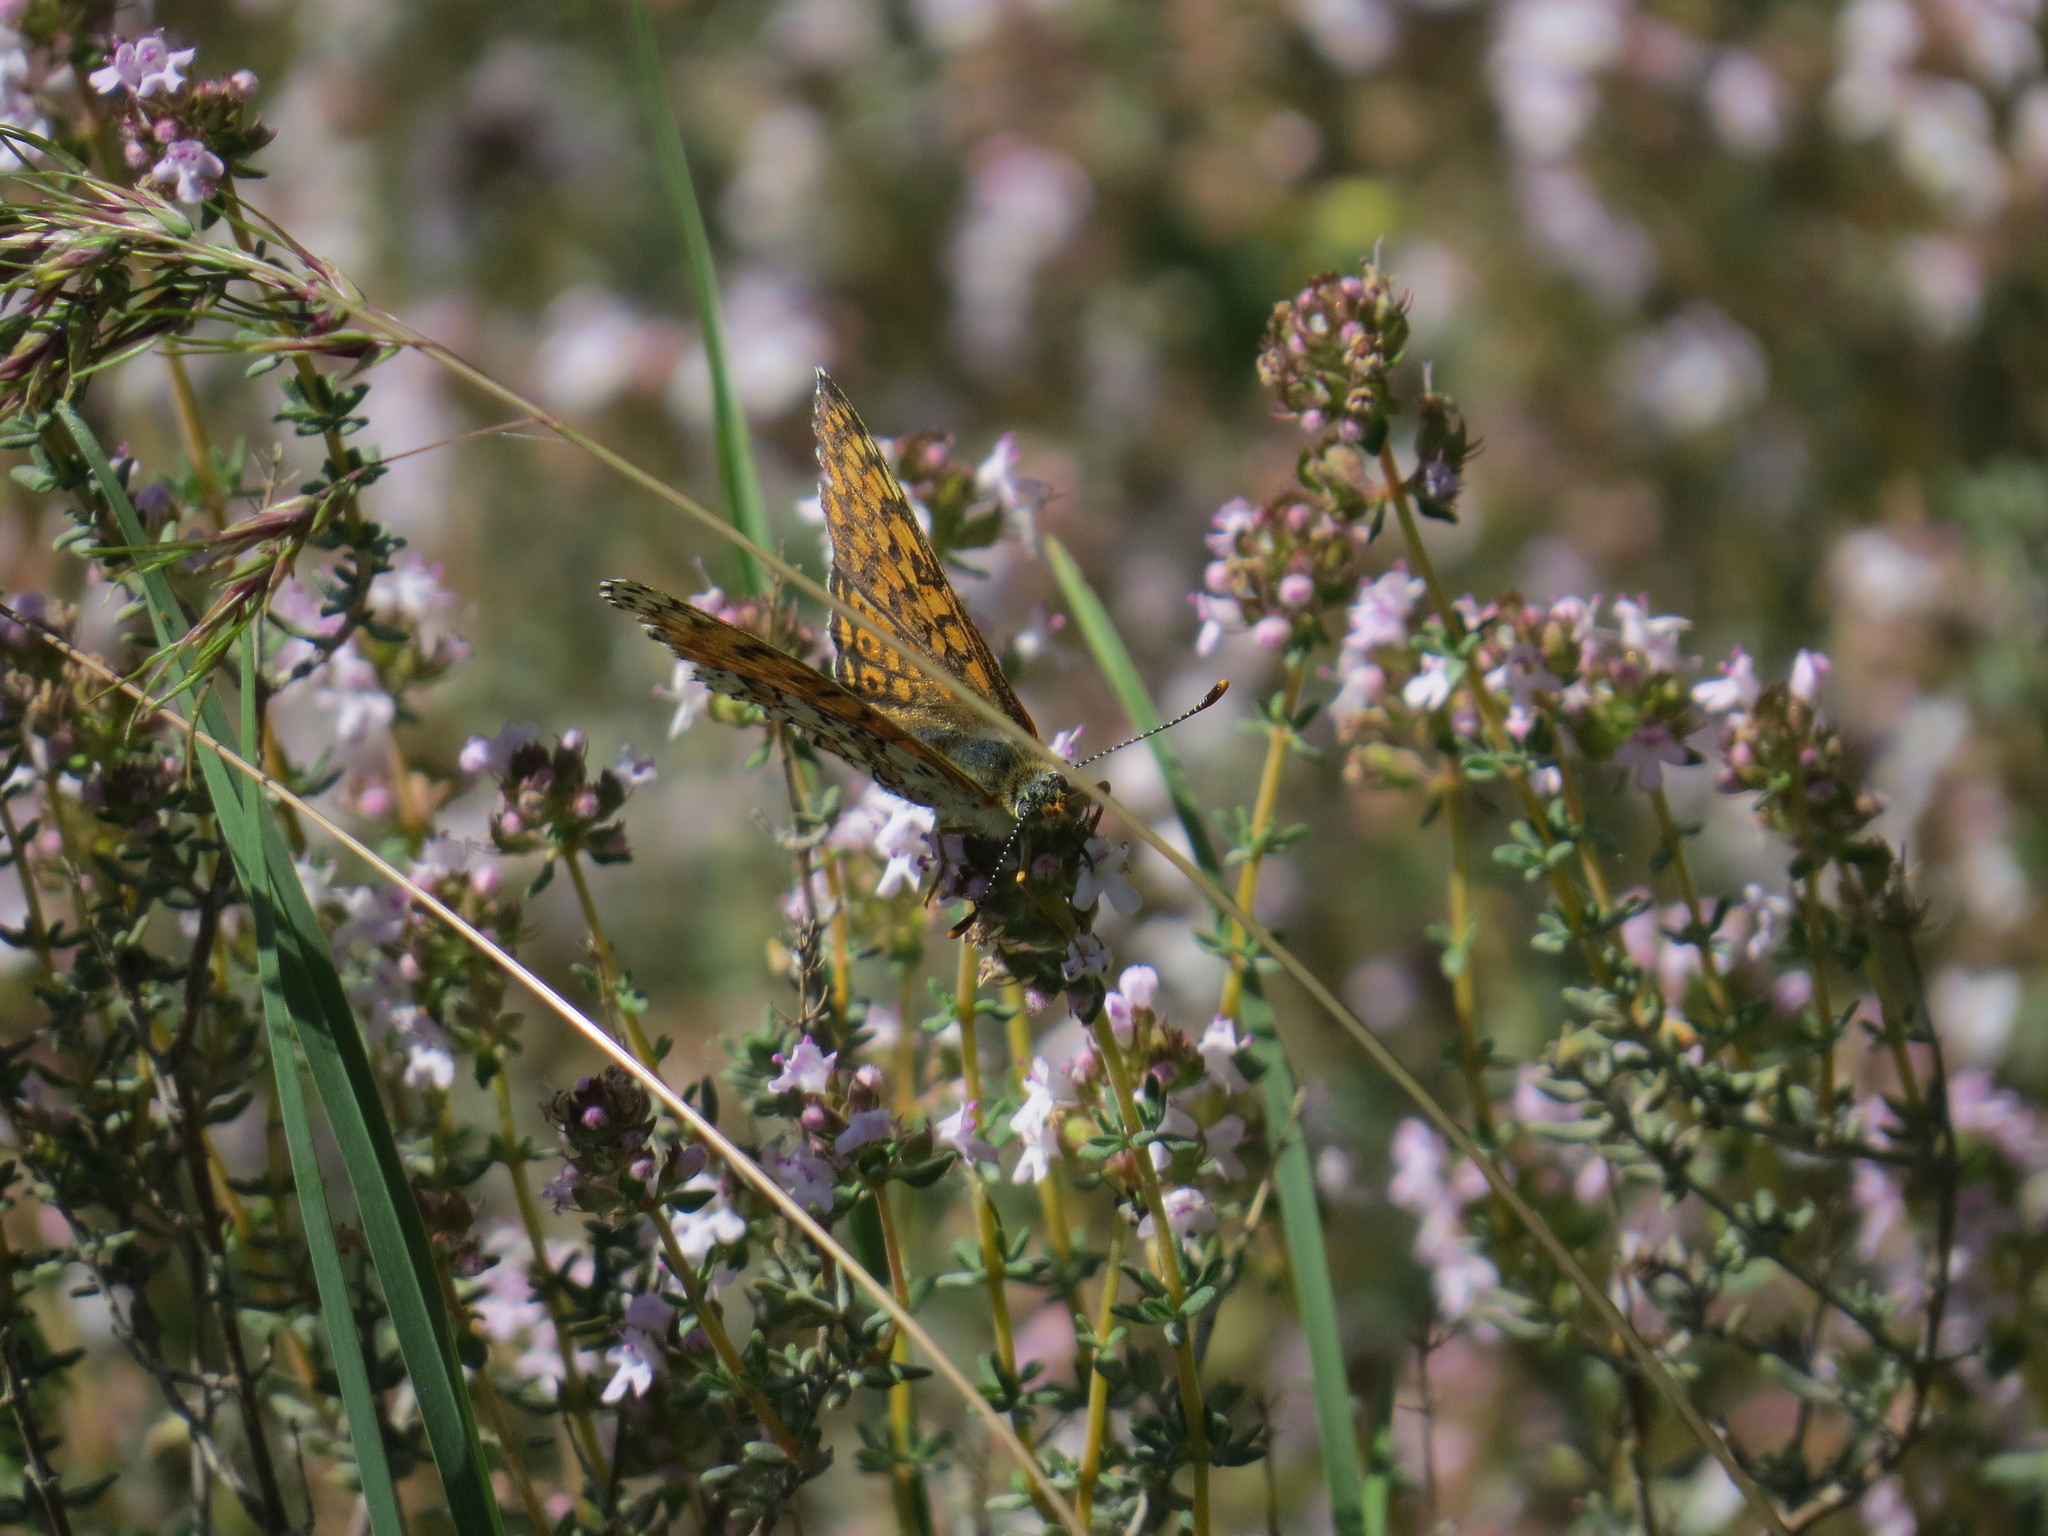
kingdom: Animalia
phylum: Arthropoda
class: Insecta
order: Lepidoptera
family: Nymphalidae
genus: Melitaea
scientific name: Melitaea cinxia
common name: Glanville fritillary
